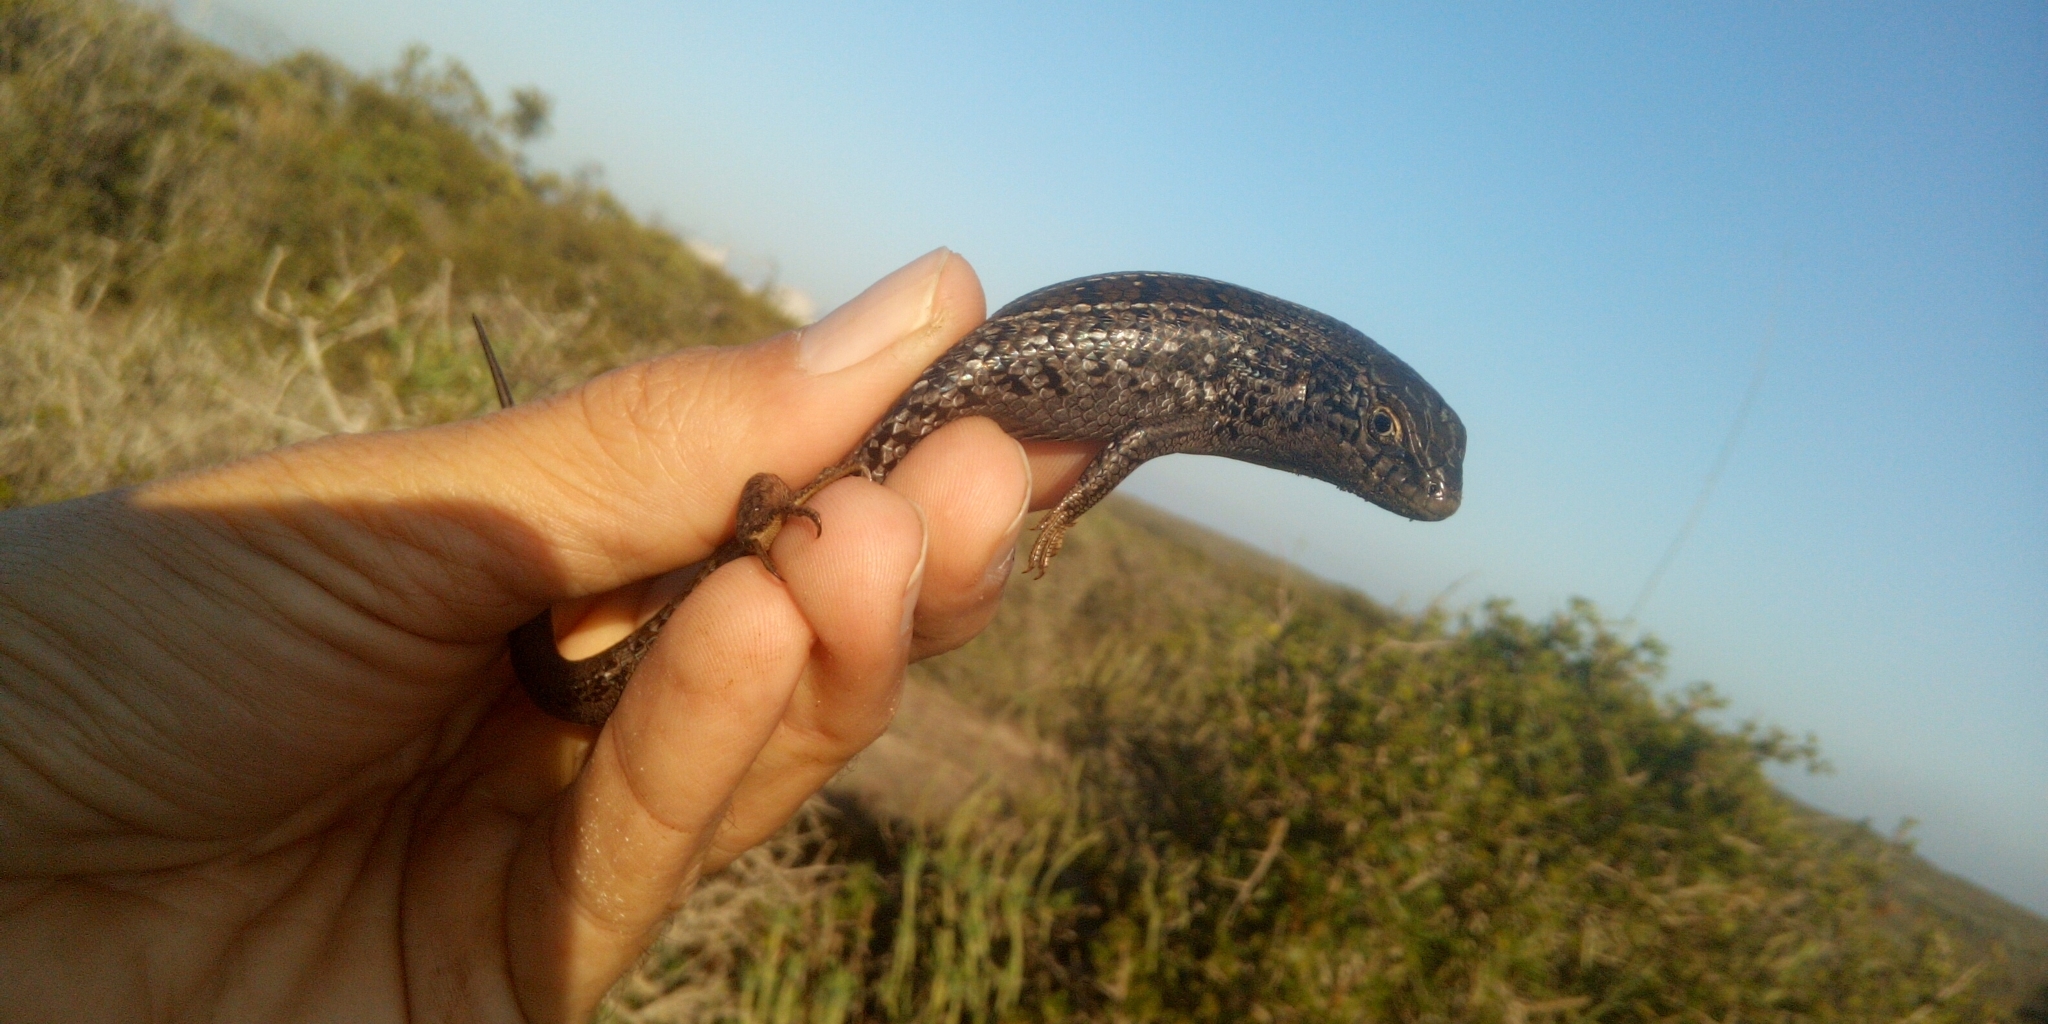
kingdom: Animalia
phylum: Chordata
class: Squamata
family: Scincidae
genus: Trachylepis
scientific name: Trachylepis capensis
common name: Cape skink
